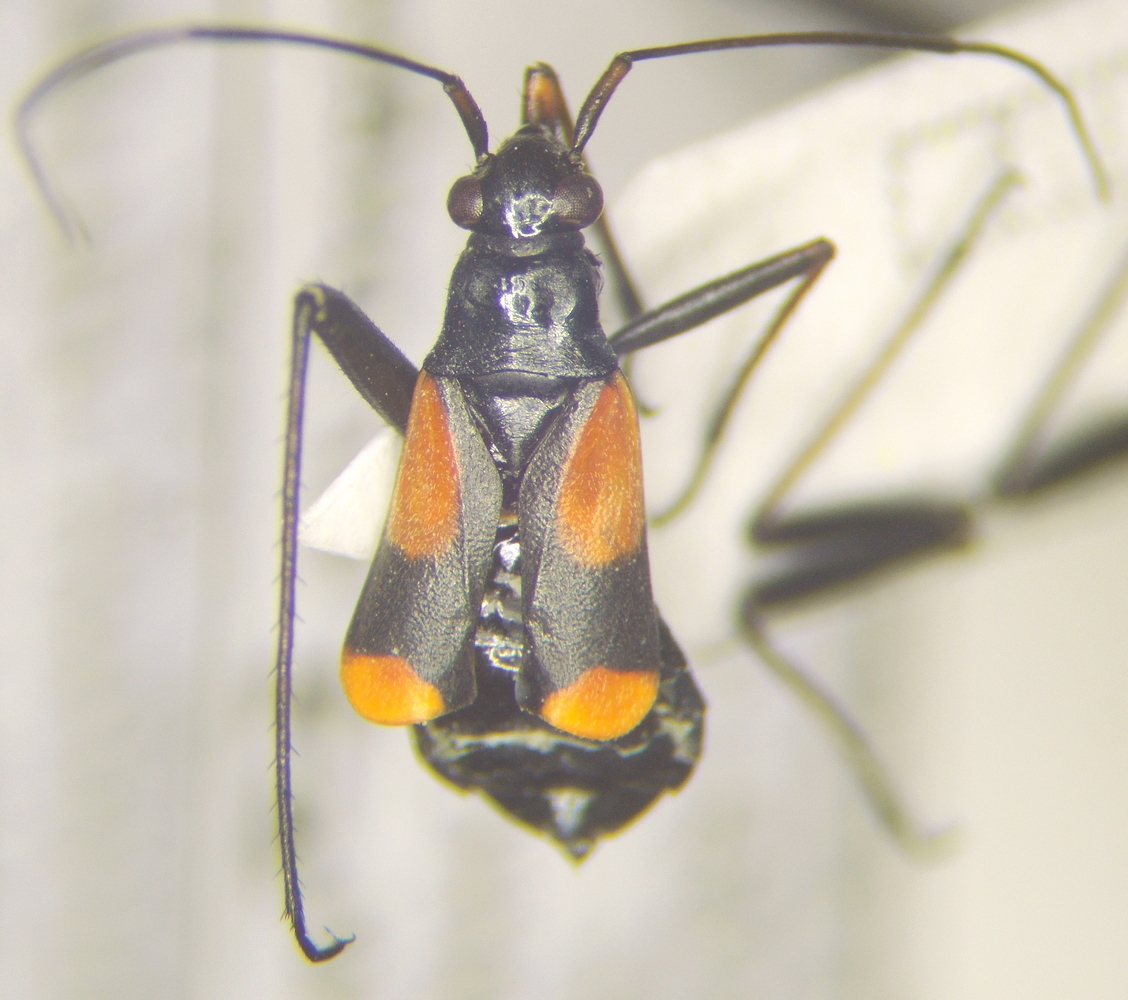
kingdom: Animalia
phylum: Arthropoda
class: Insecta
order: Hemiptera
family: Miridae
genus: Alloeonotus
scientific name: Alloeonotus fulvipes
